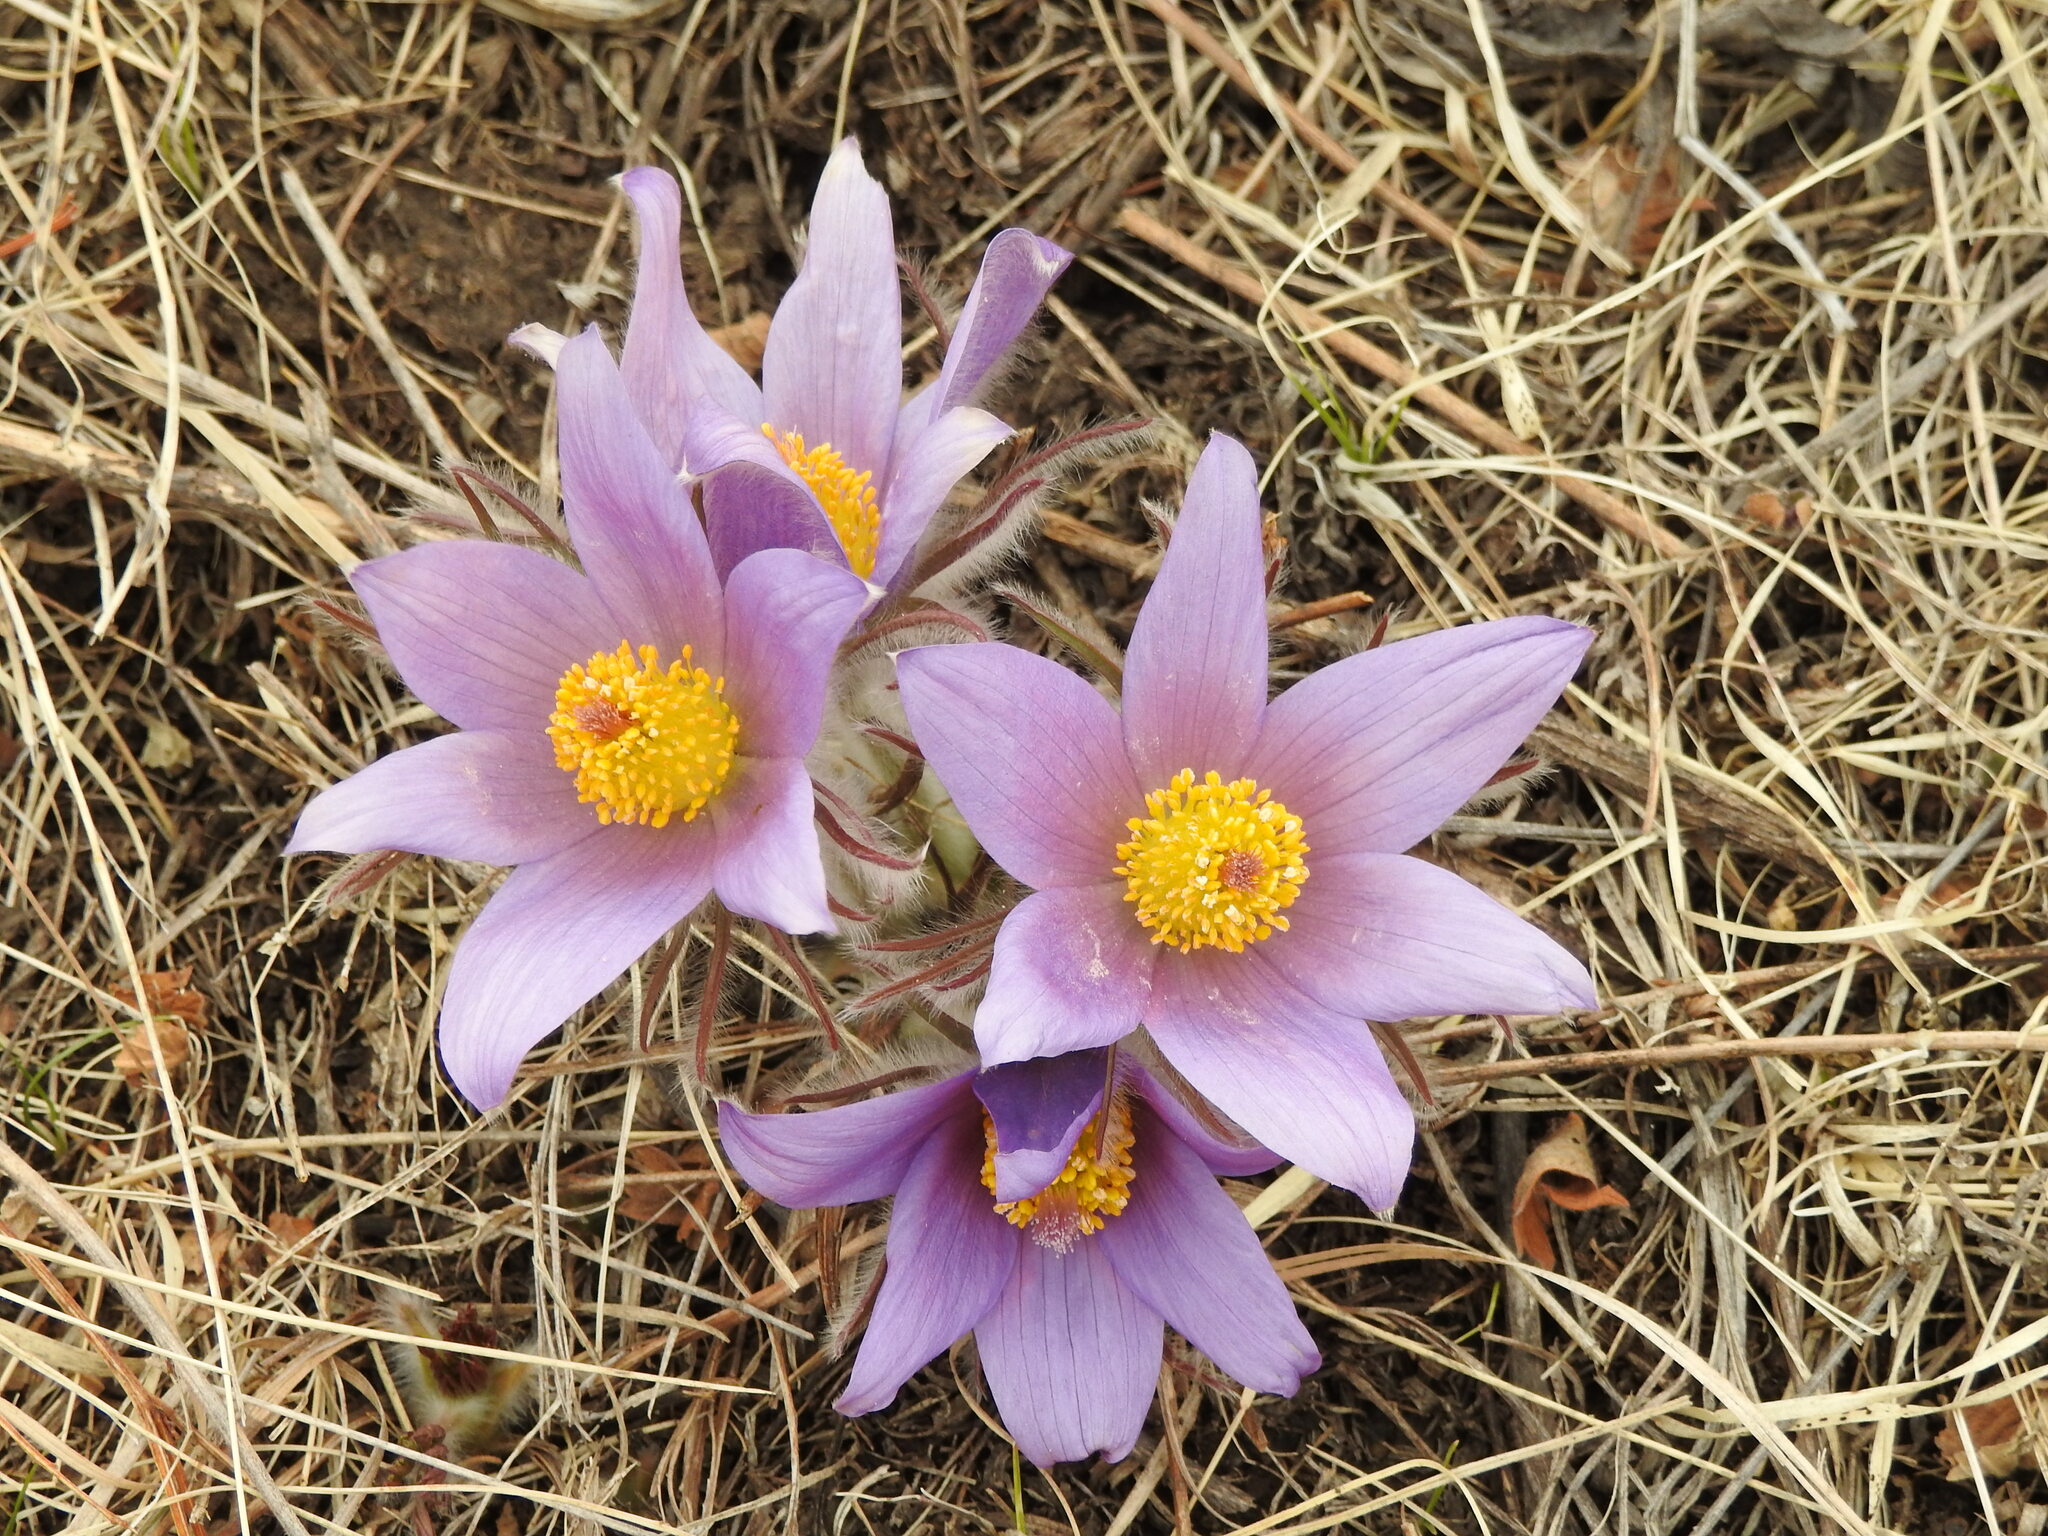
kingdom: Plantae
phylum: Tracheophyta
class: Magnoliopsida
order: Ranunculales
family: Ranunculaceae
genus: Pulsatilla
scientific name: Pulsatilla turczaninovii
